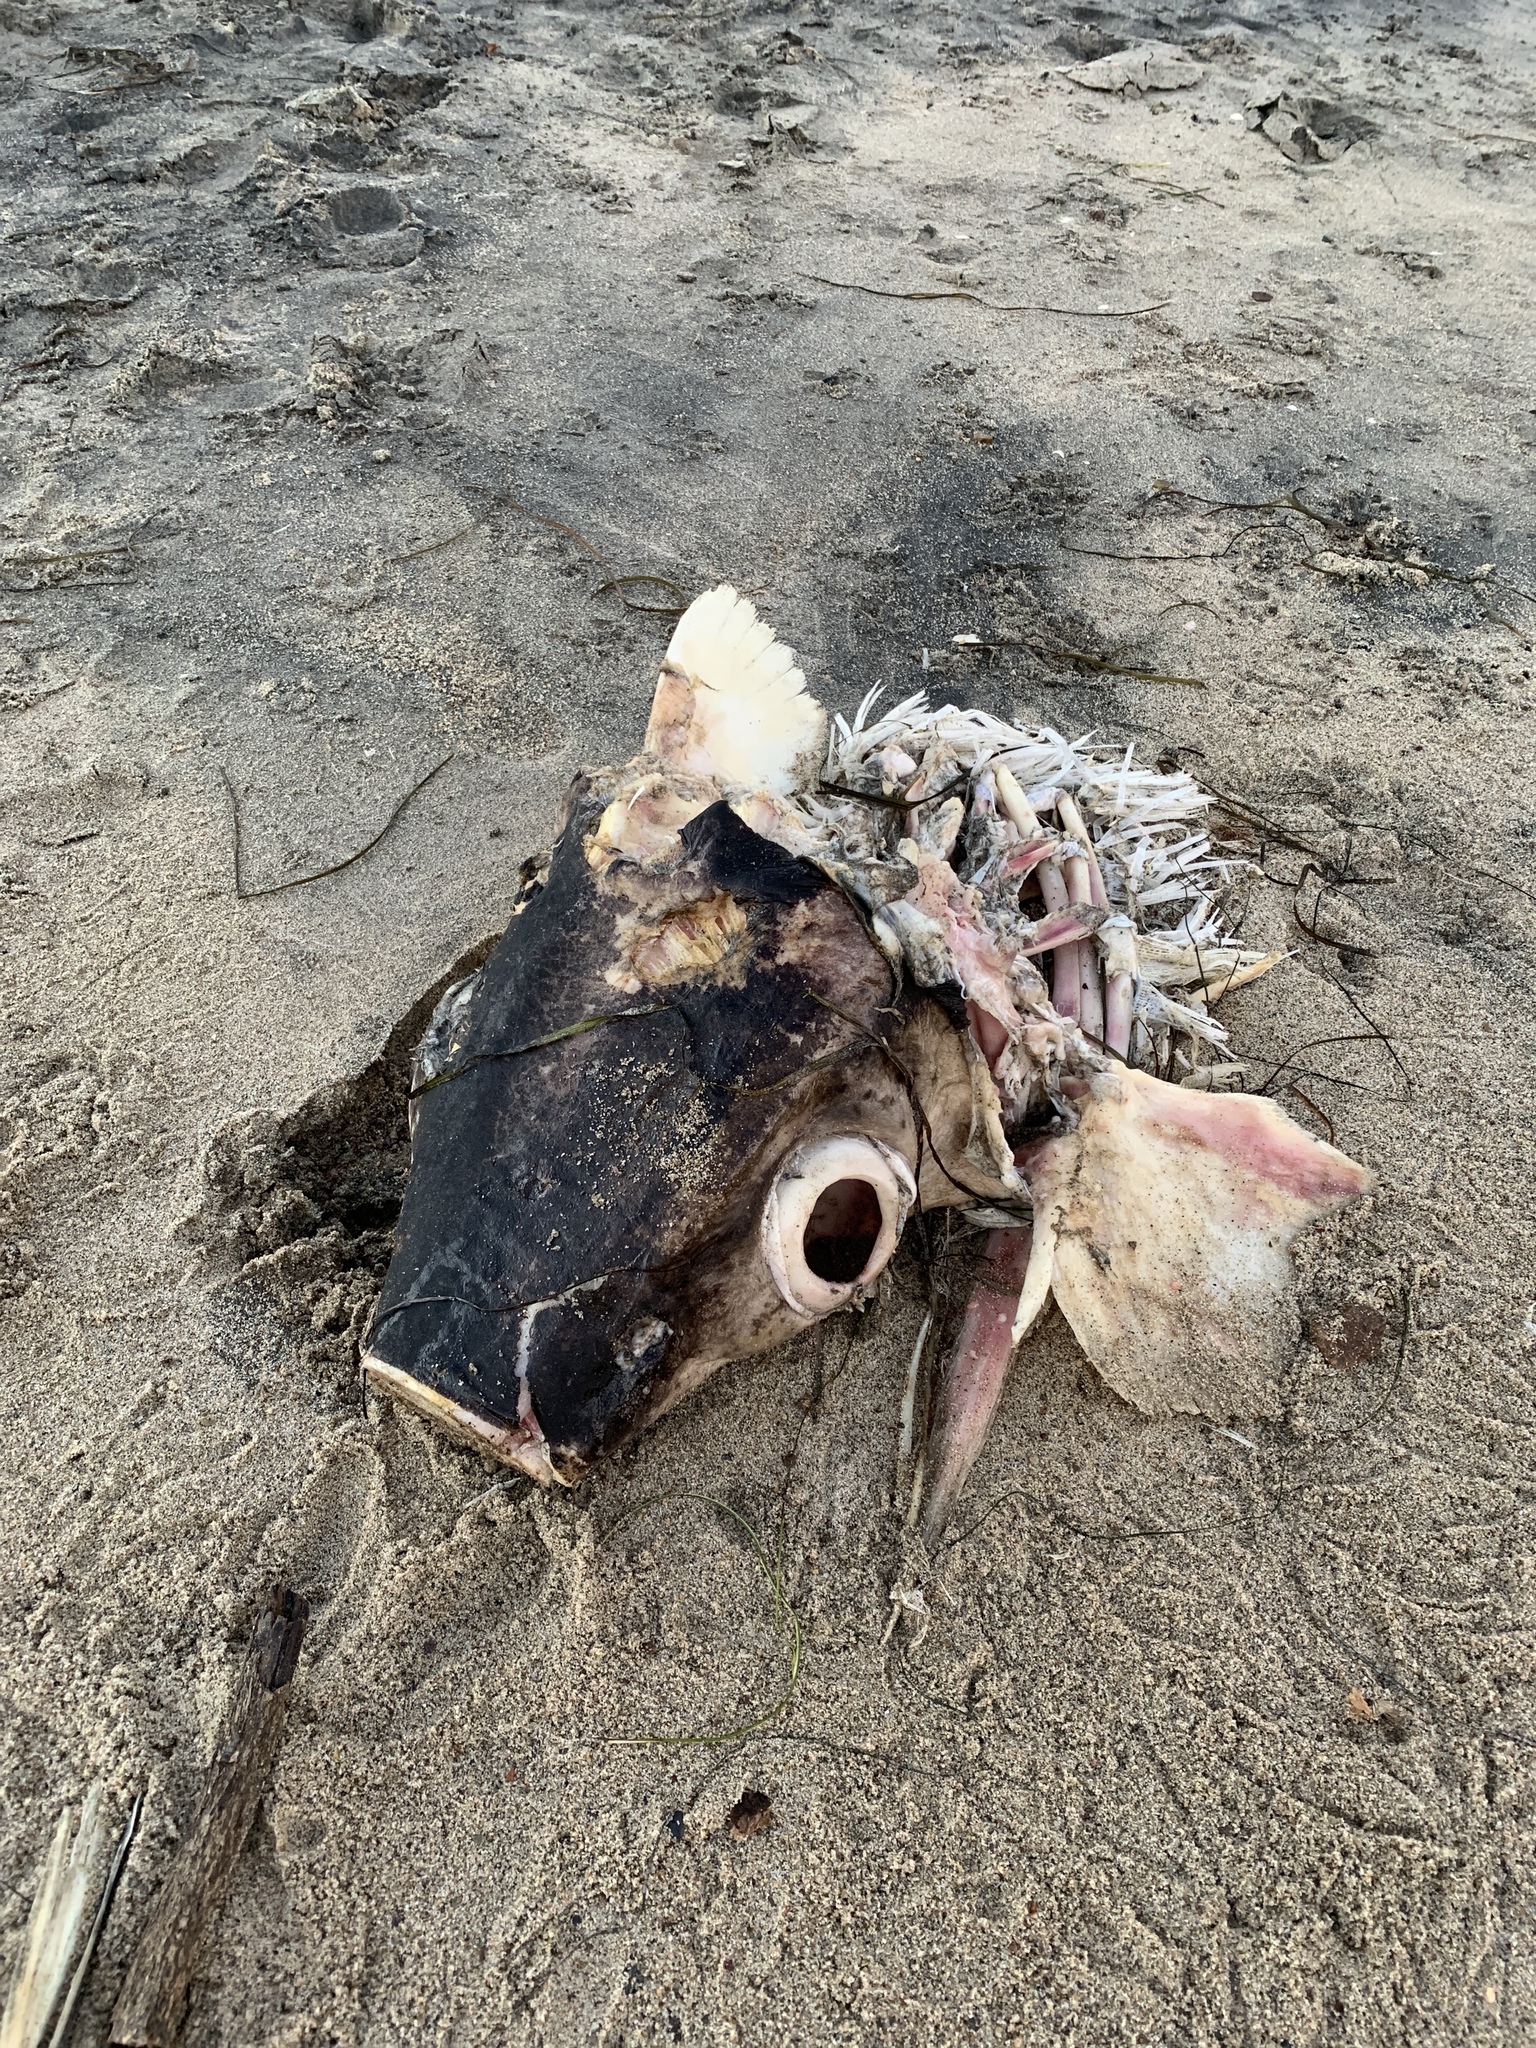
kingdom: Animalia
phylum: Chordata
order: Perciformes
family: Xiphiidae
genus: Xiphias
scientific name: Xiphias gladius
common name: Swordfish
